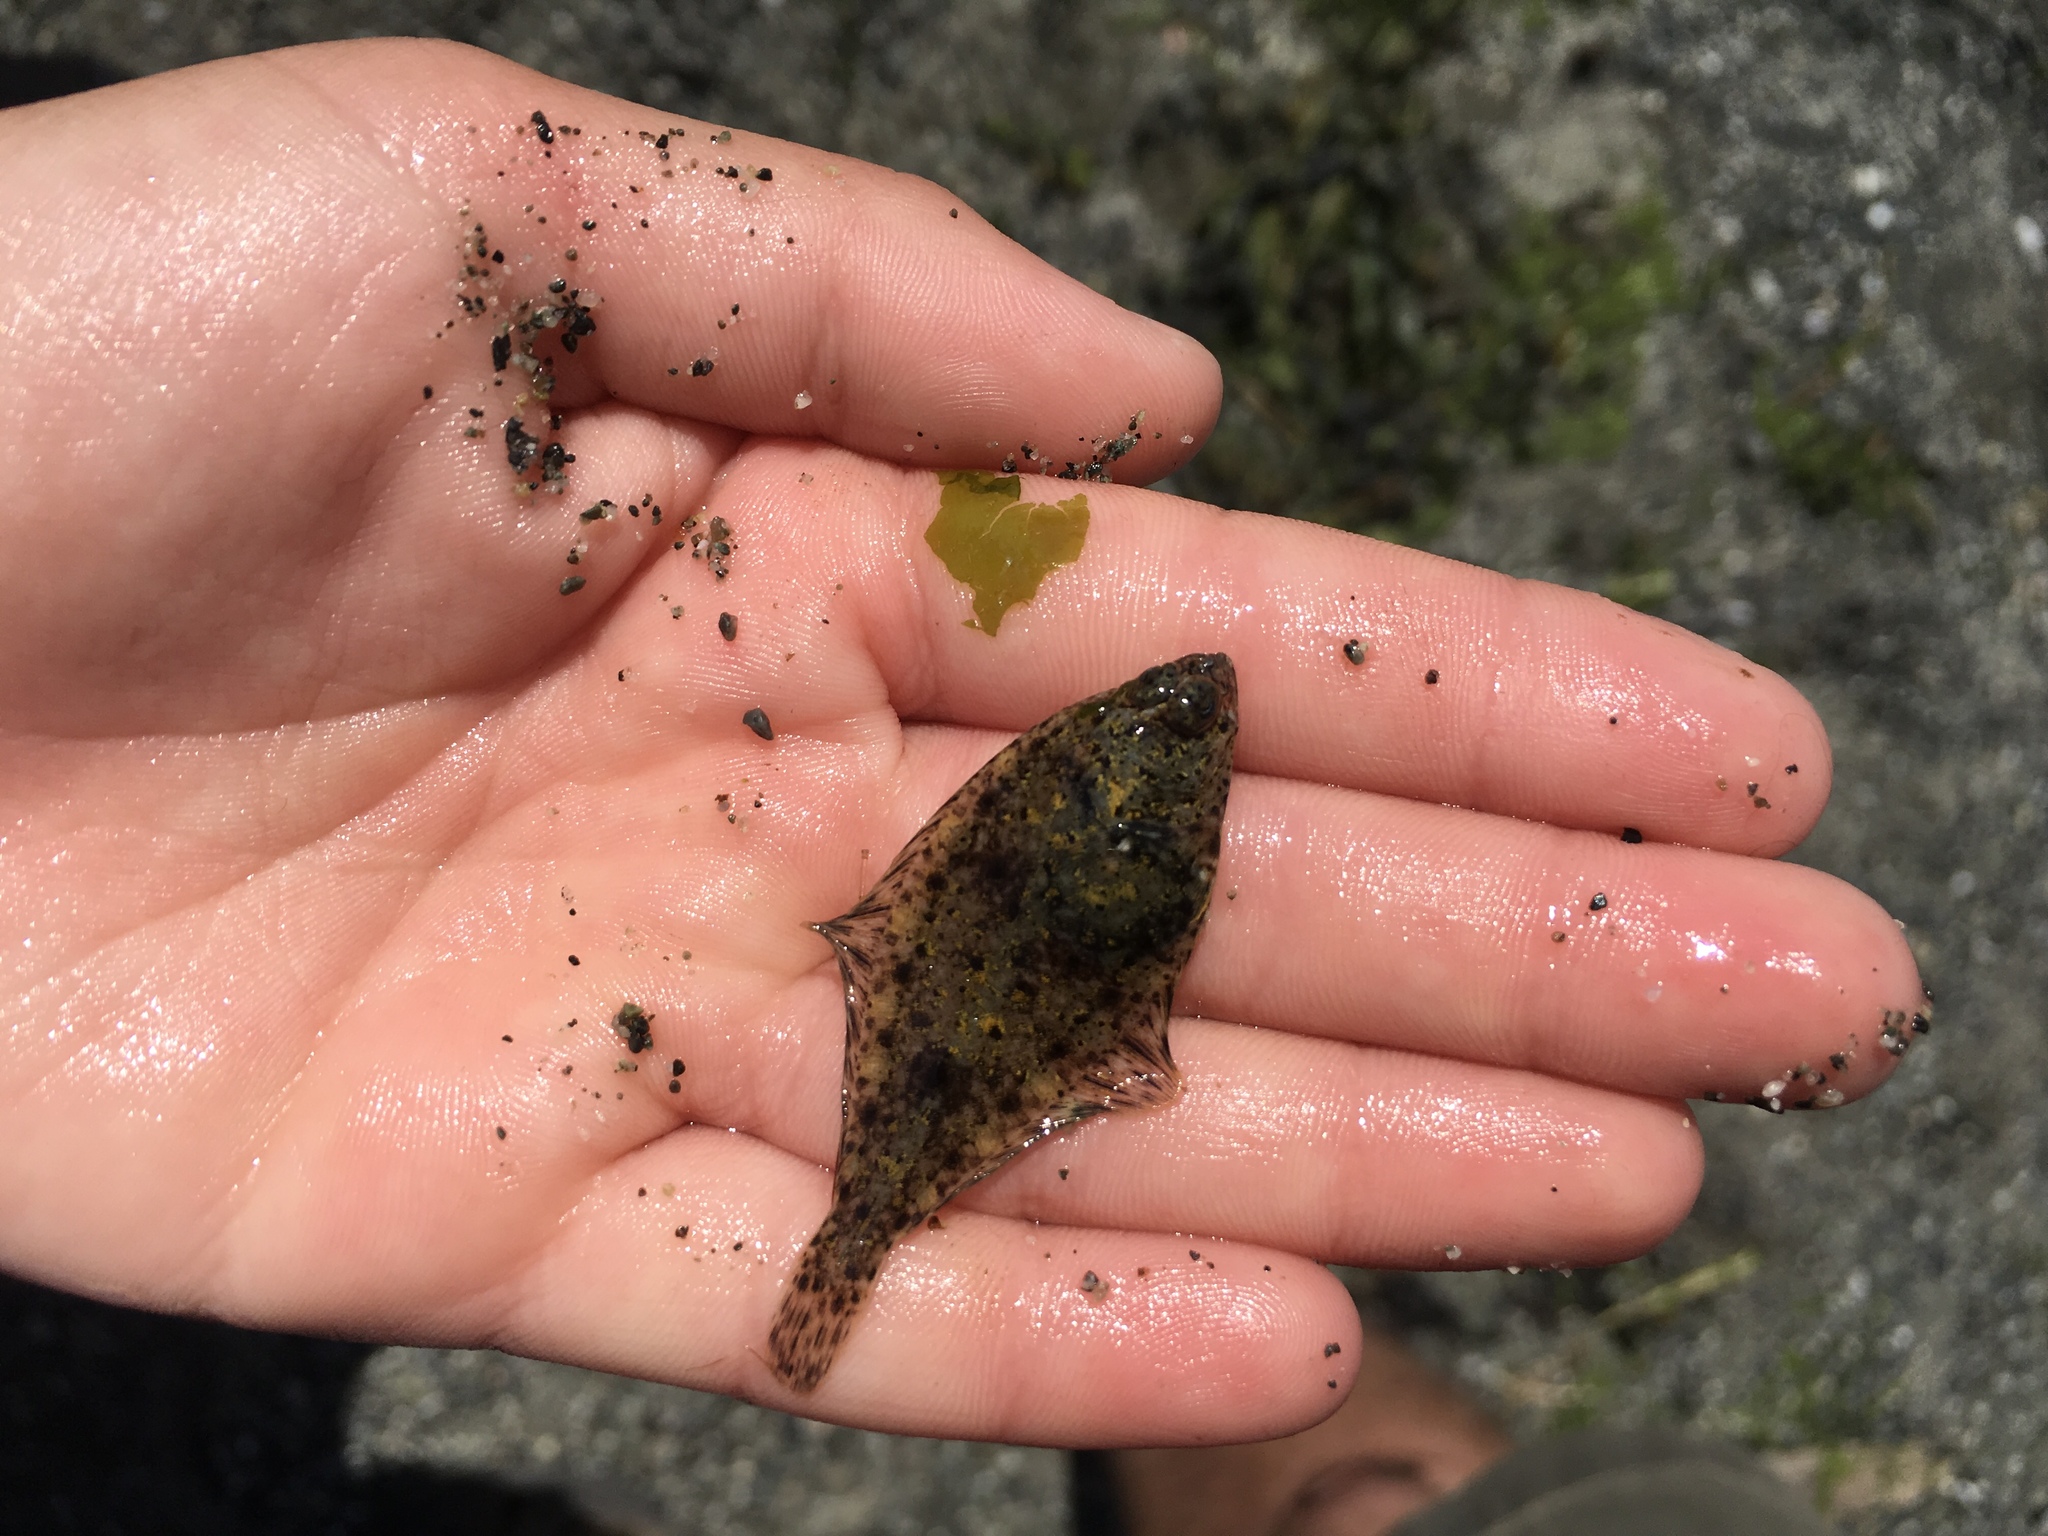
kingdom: Animalia
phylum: Chordata
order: Pleuronectiformes
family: Pleuronectidae
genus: Parophrys
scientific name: Parophrys vetulus
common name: English sole
